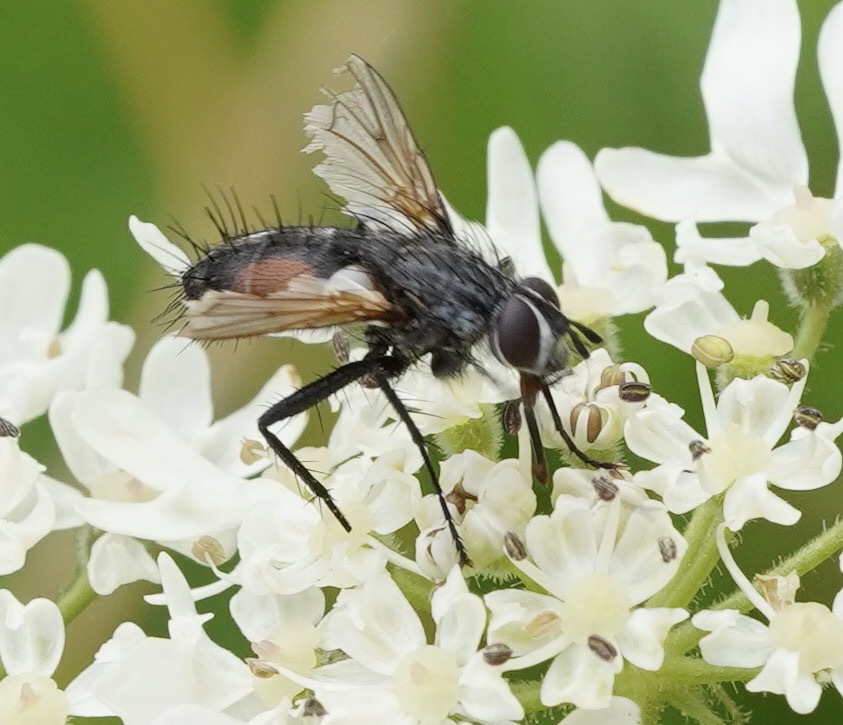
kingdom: Animalia
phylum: Arthropoda
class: Insecta
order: Diptera
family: Tachinidae
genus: Eriothrix
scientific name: Eriothrix rufomaculatus
